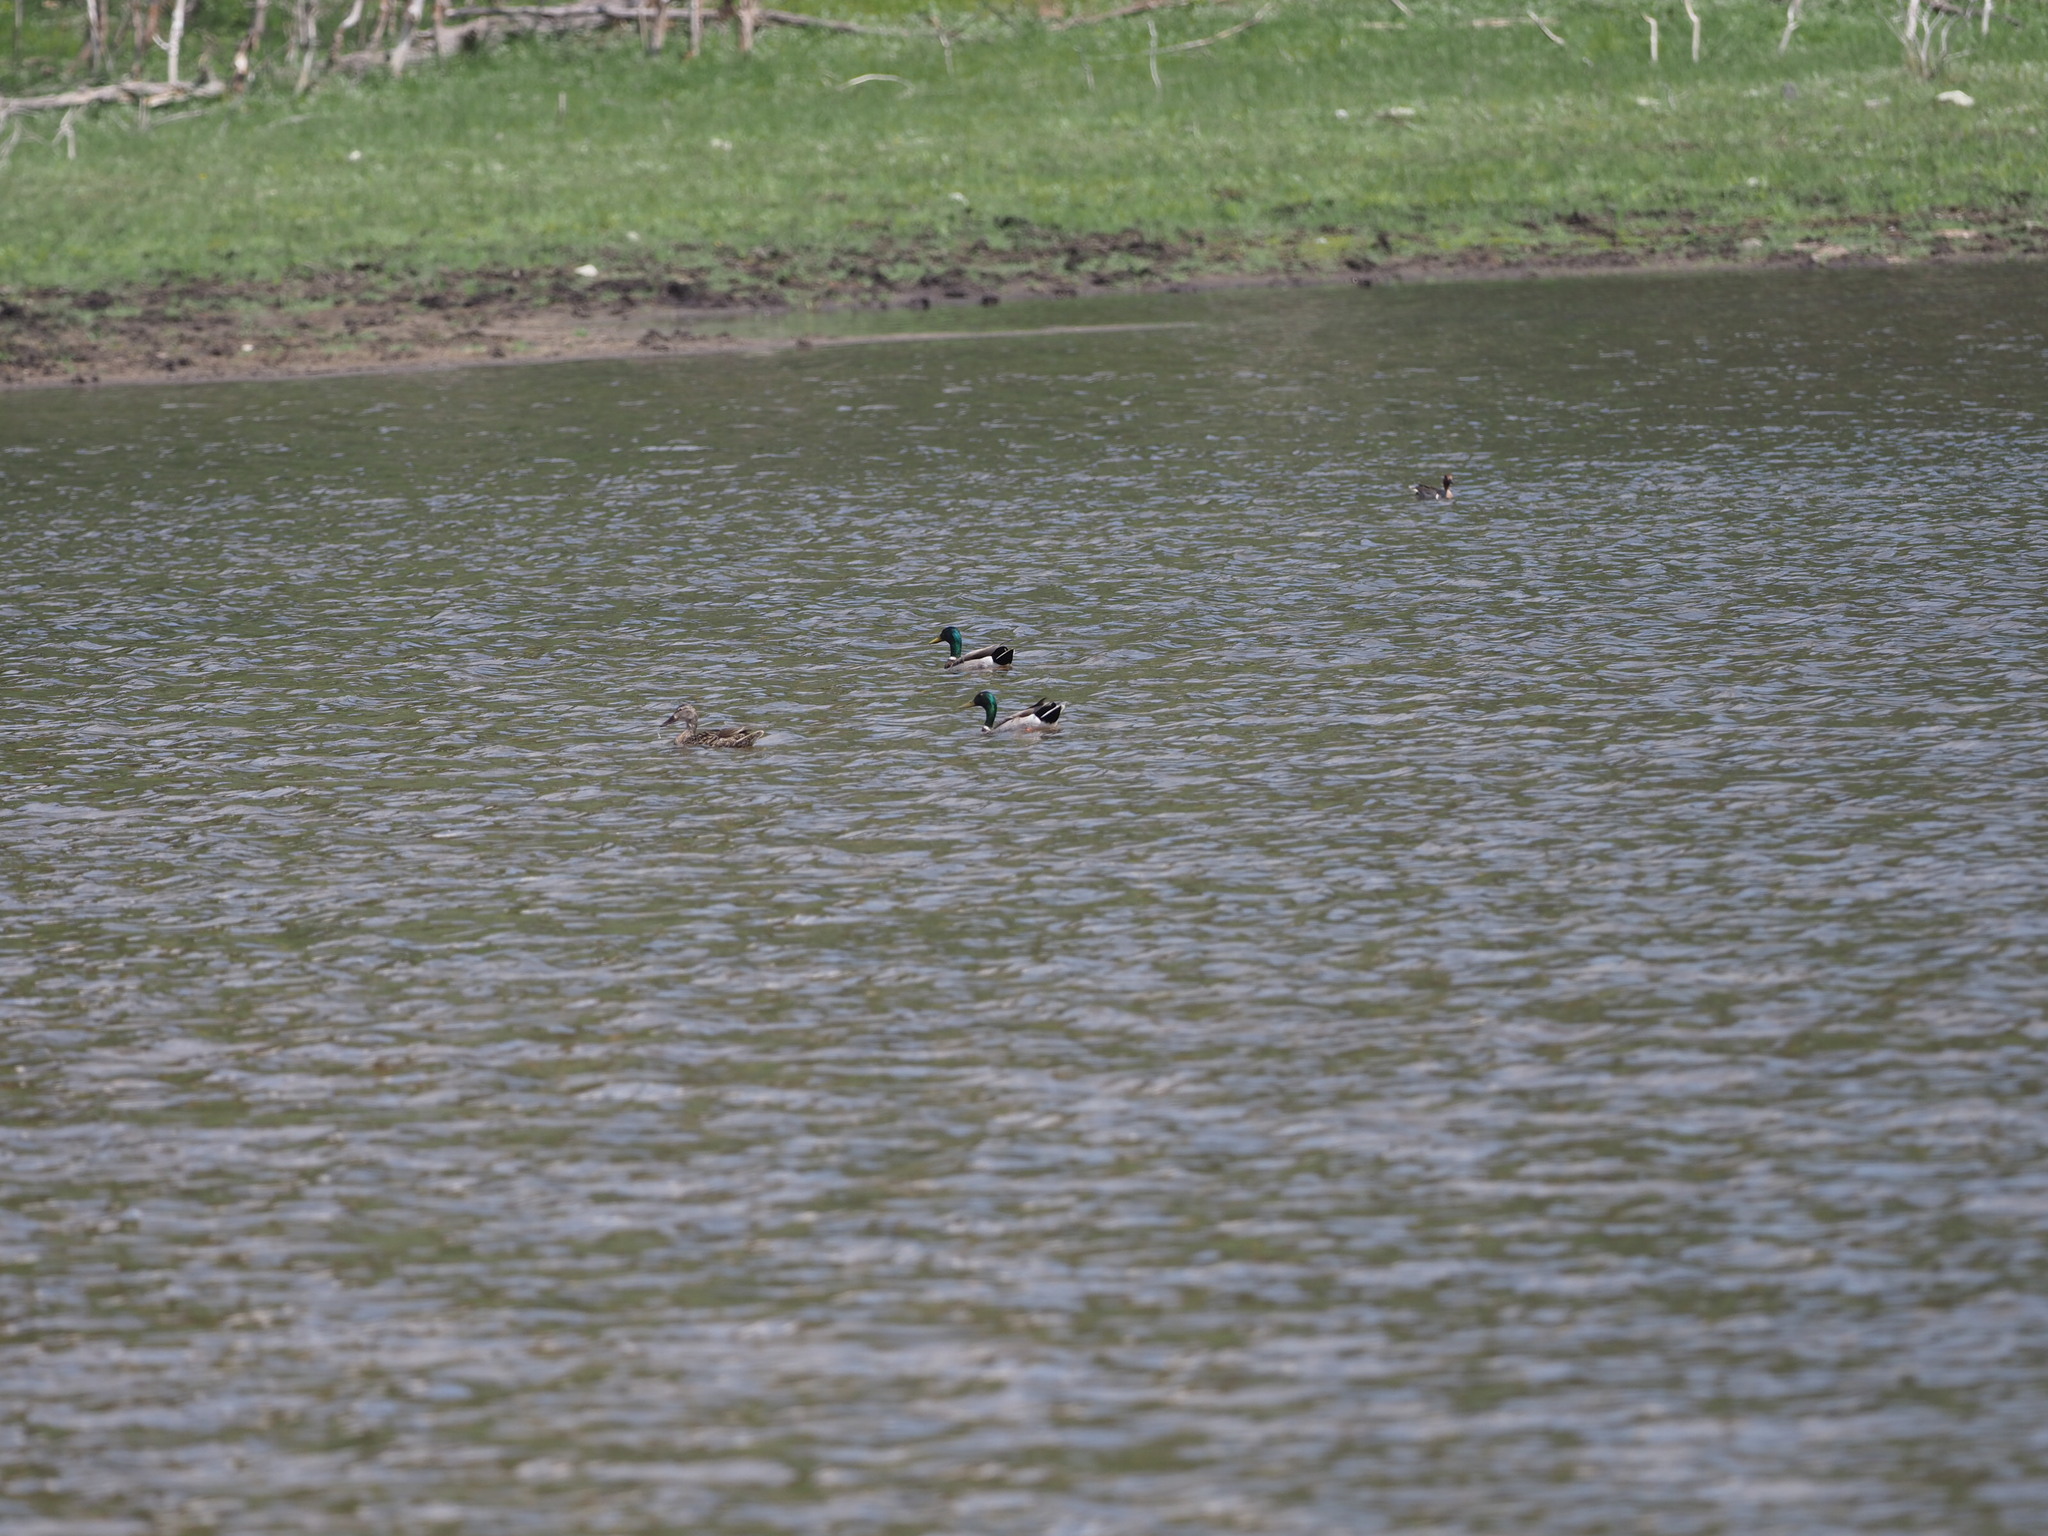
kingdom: Animalia
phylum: Chordata
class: Aves
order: Anseriformes
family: Anatidae
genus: Anas
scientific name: Anas platyrhynchos
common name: Mallard
